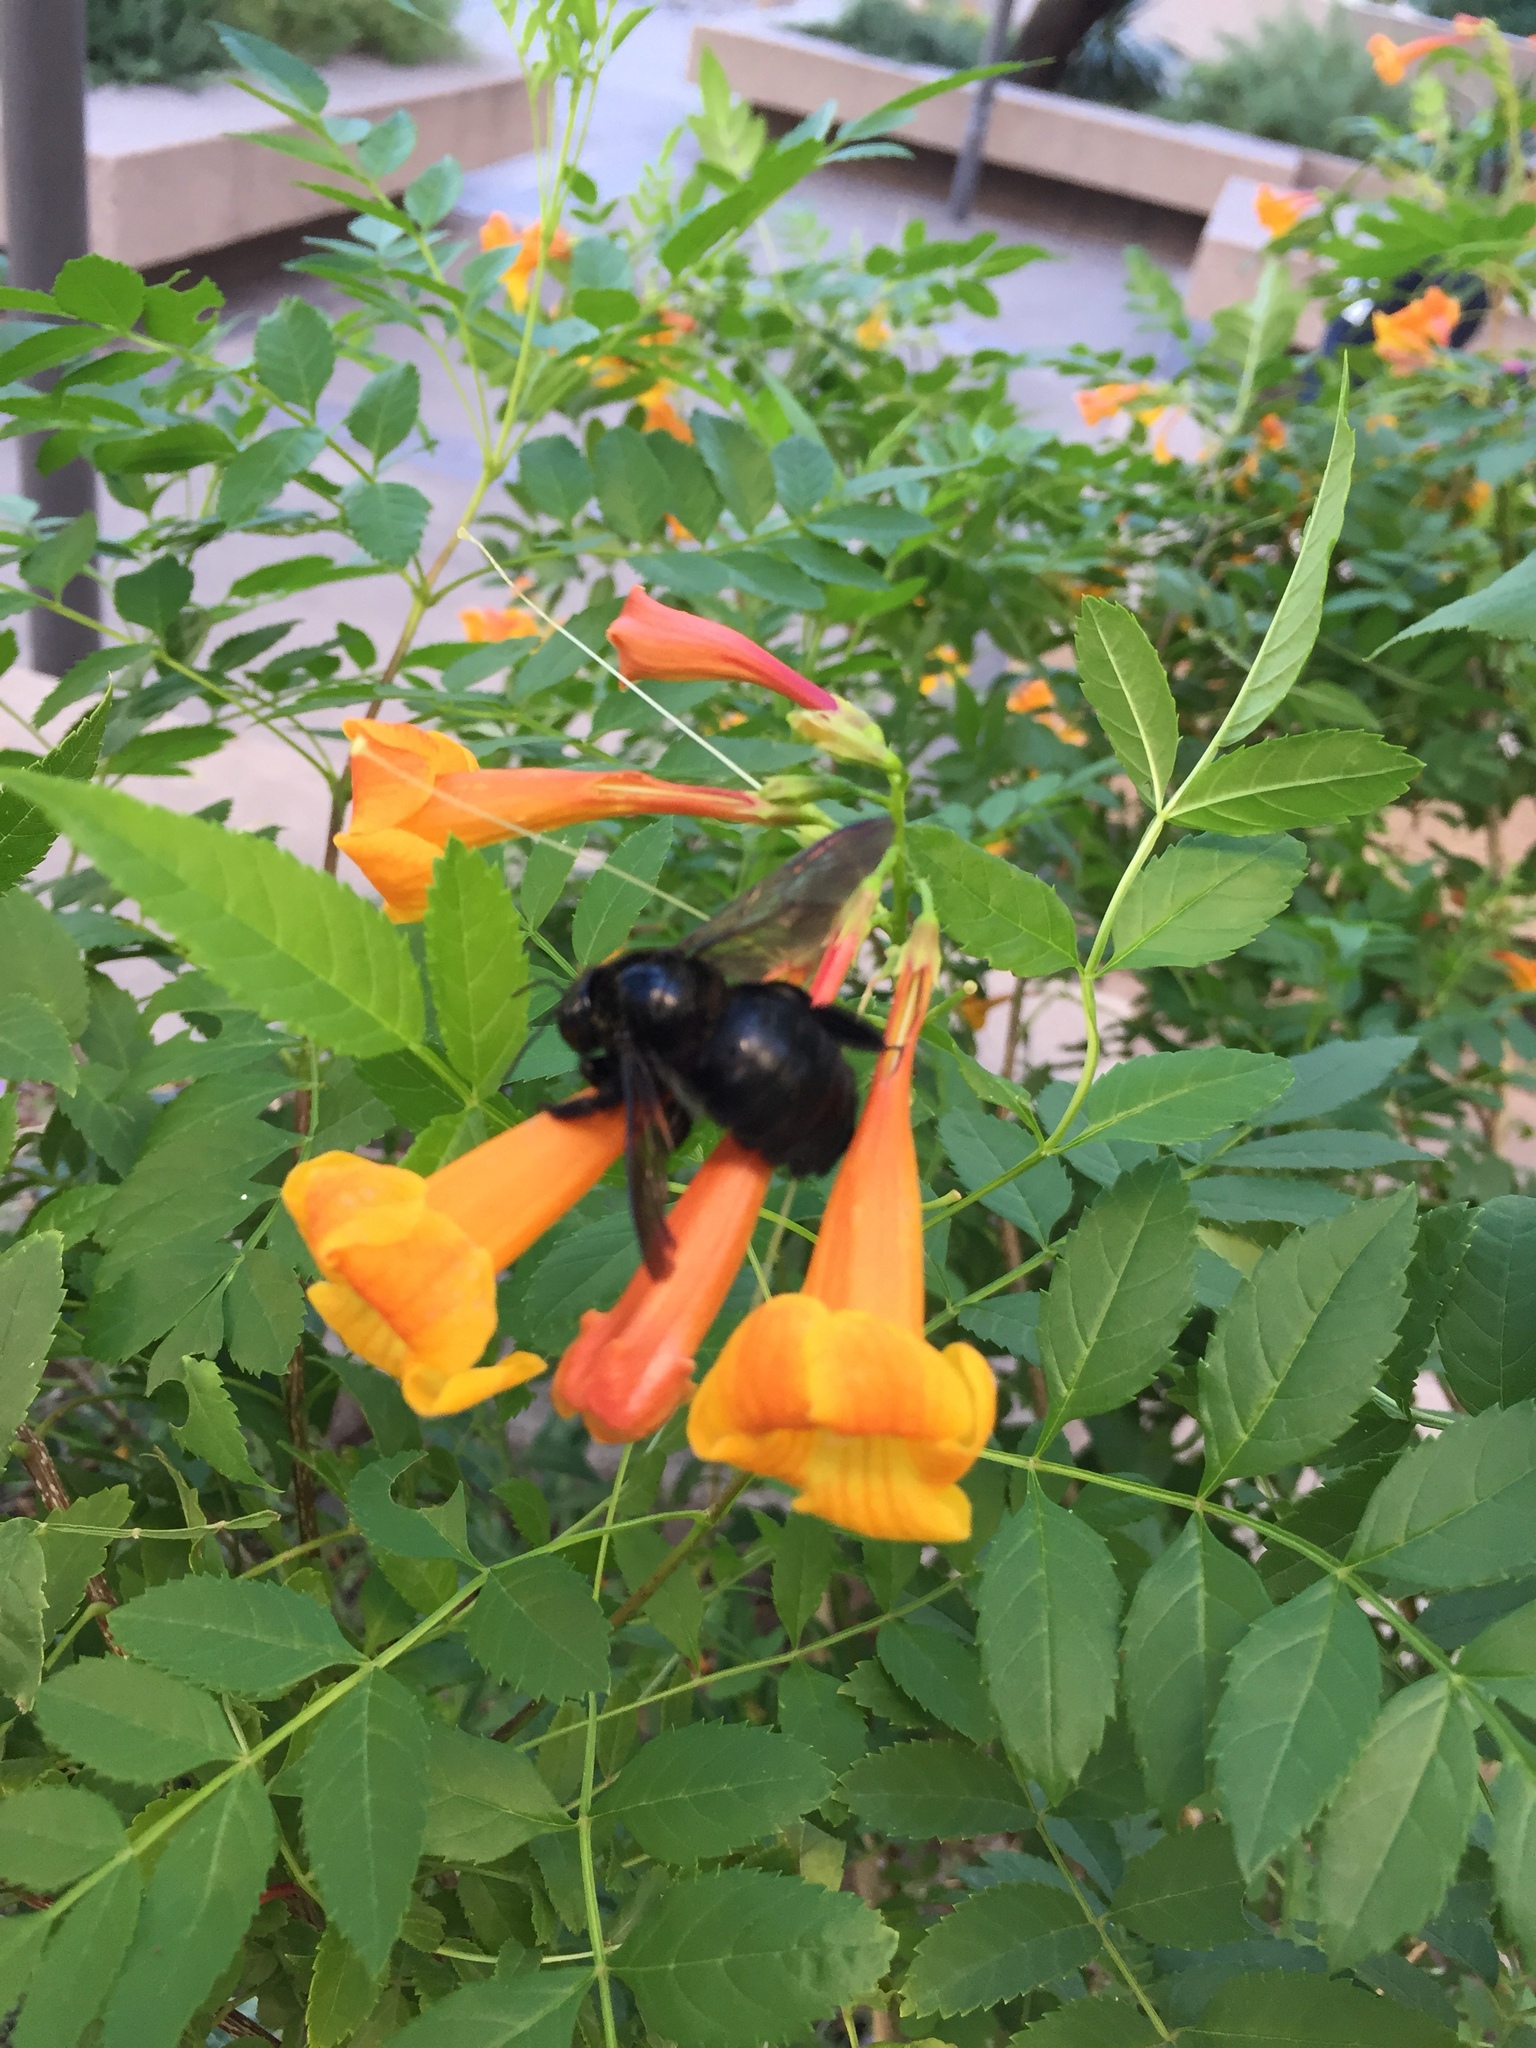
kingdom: Animalia
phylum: Arthropoda
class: Insecta
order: Hymenoptera
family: Apidae
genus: Xylocopa
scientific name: Xylocopa sonorina
